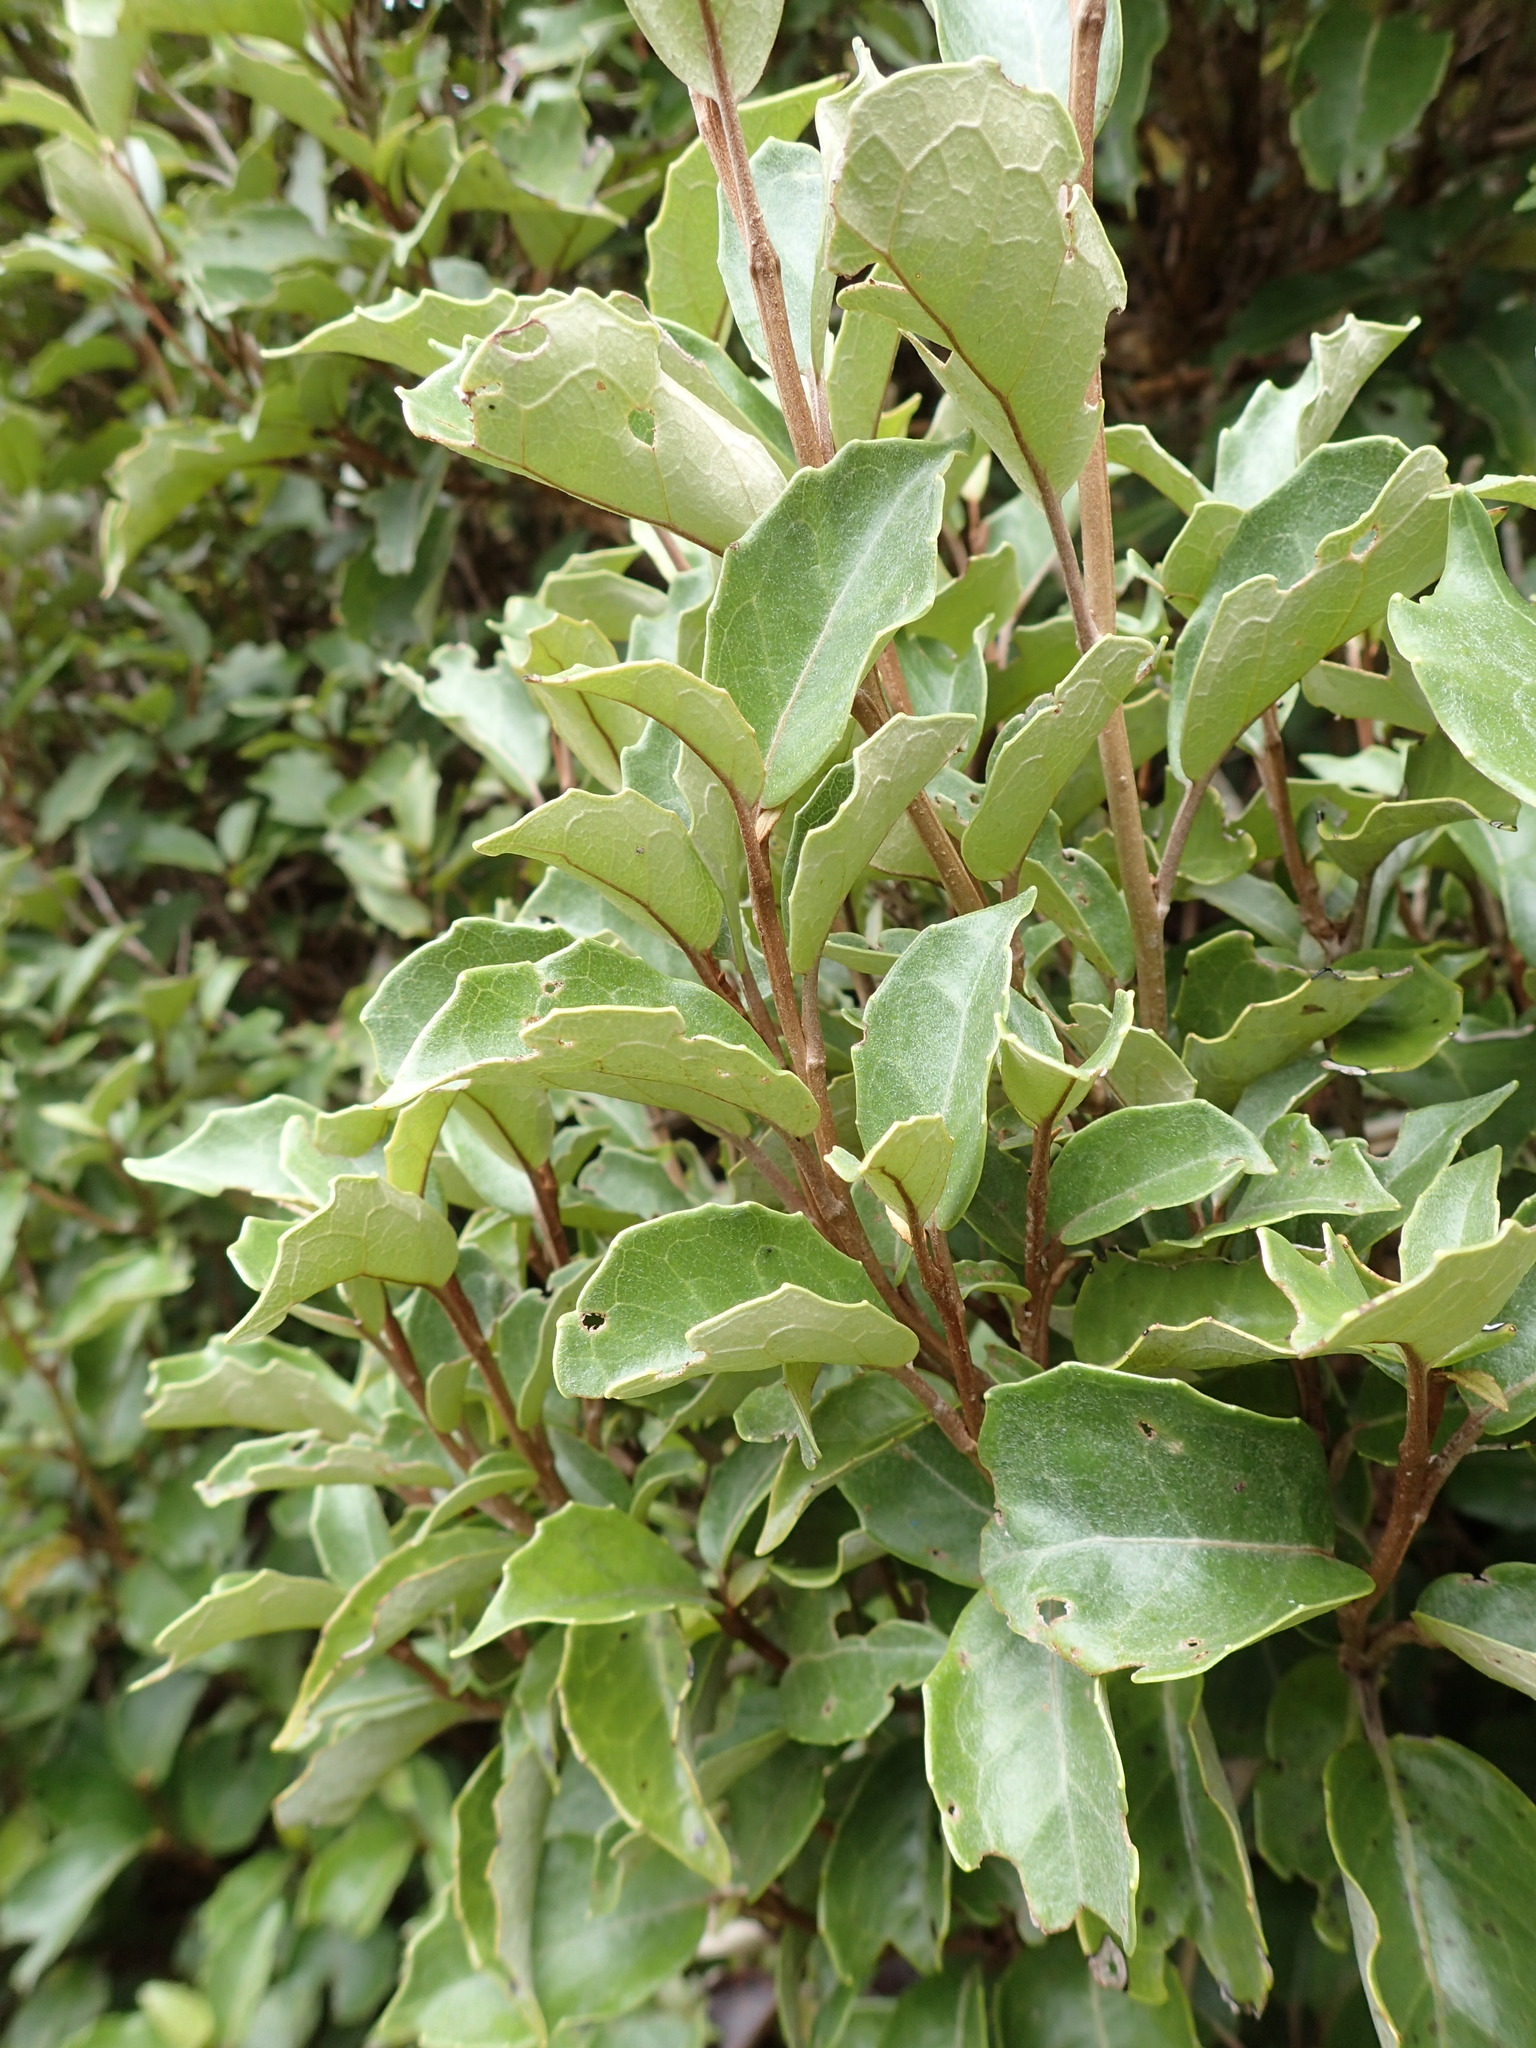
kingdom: Plantae
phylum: Tracheophyta
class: Magnoliopsida
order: Asterales
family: Asteraceae
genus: Olearia
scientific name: Olearia arborescens
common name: Glossy tree daisy
